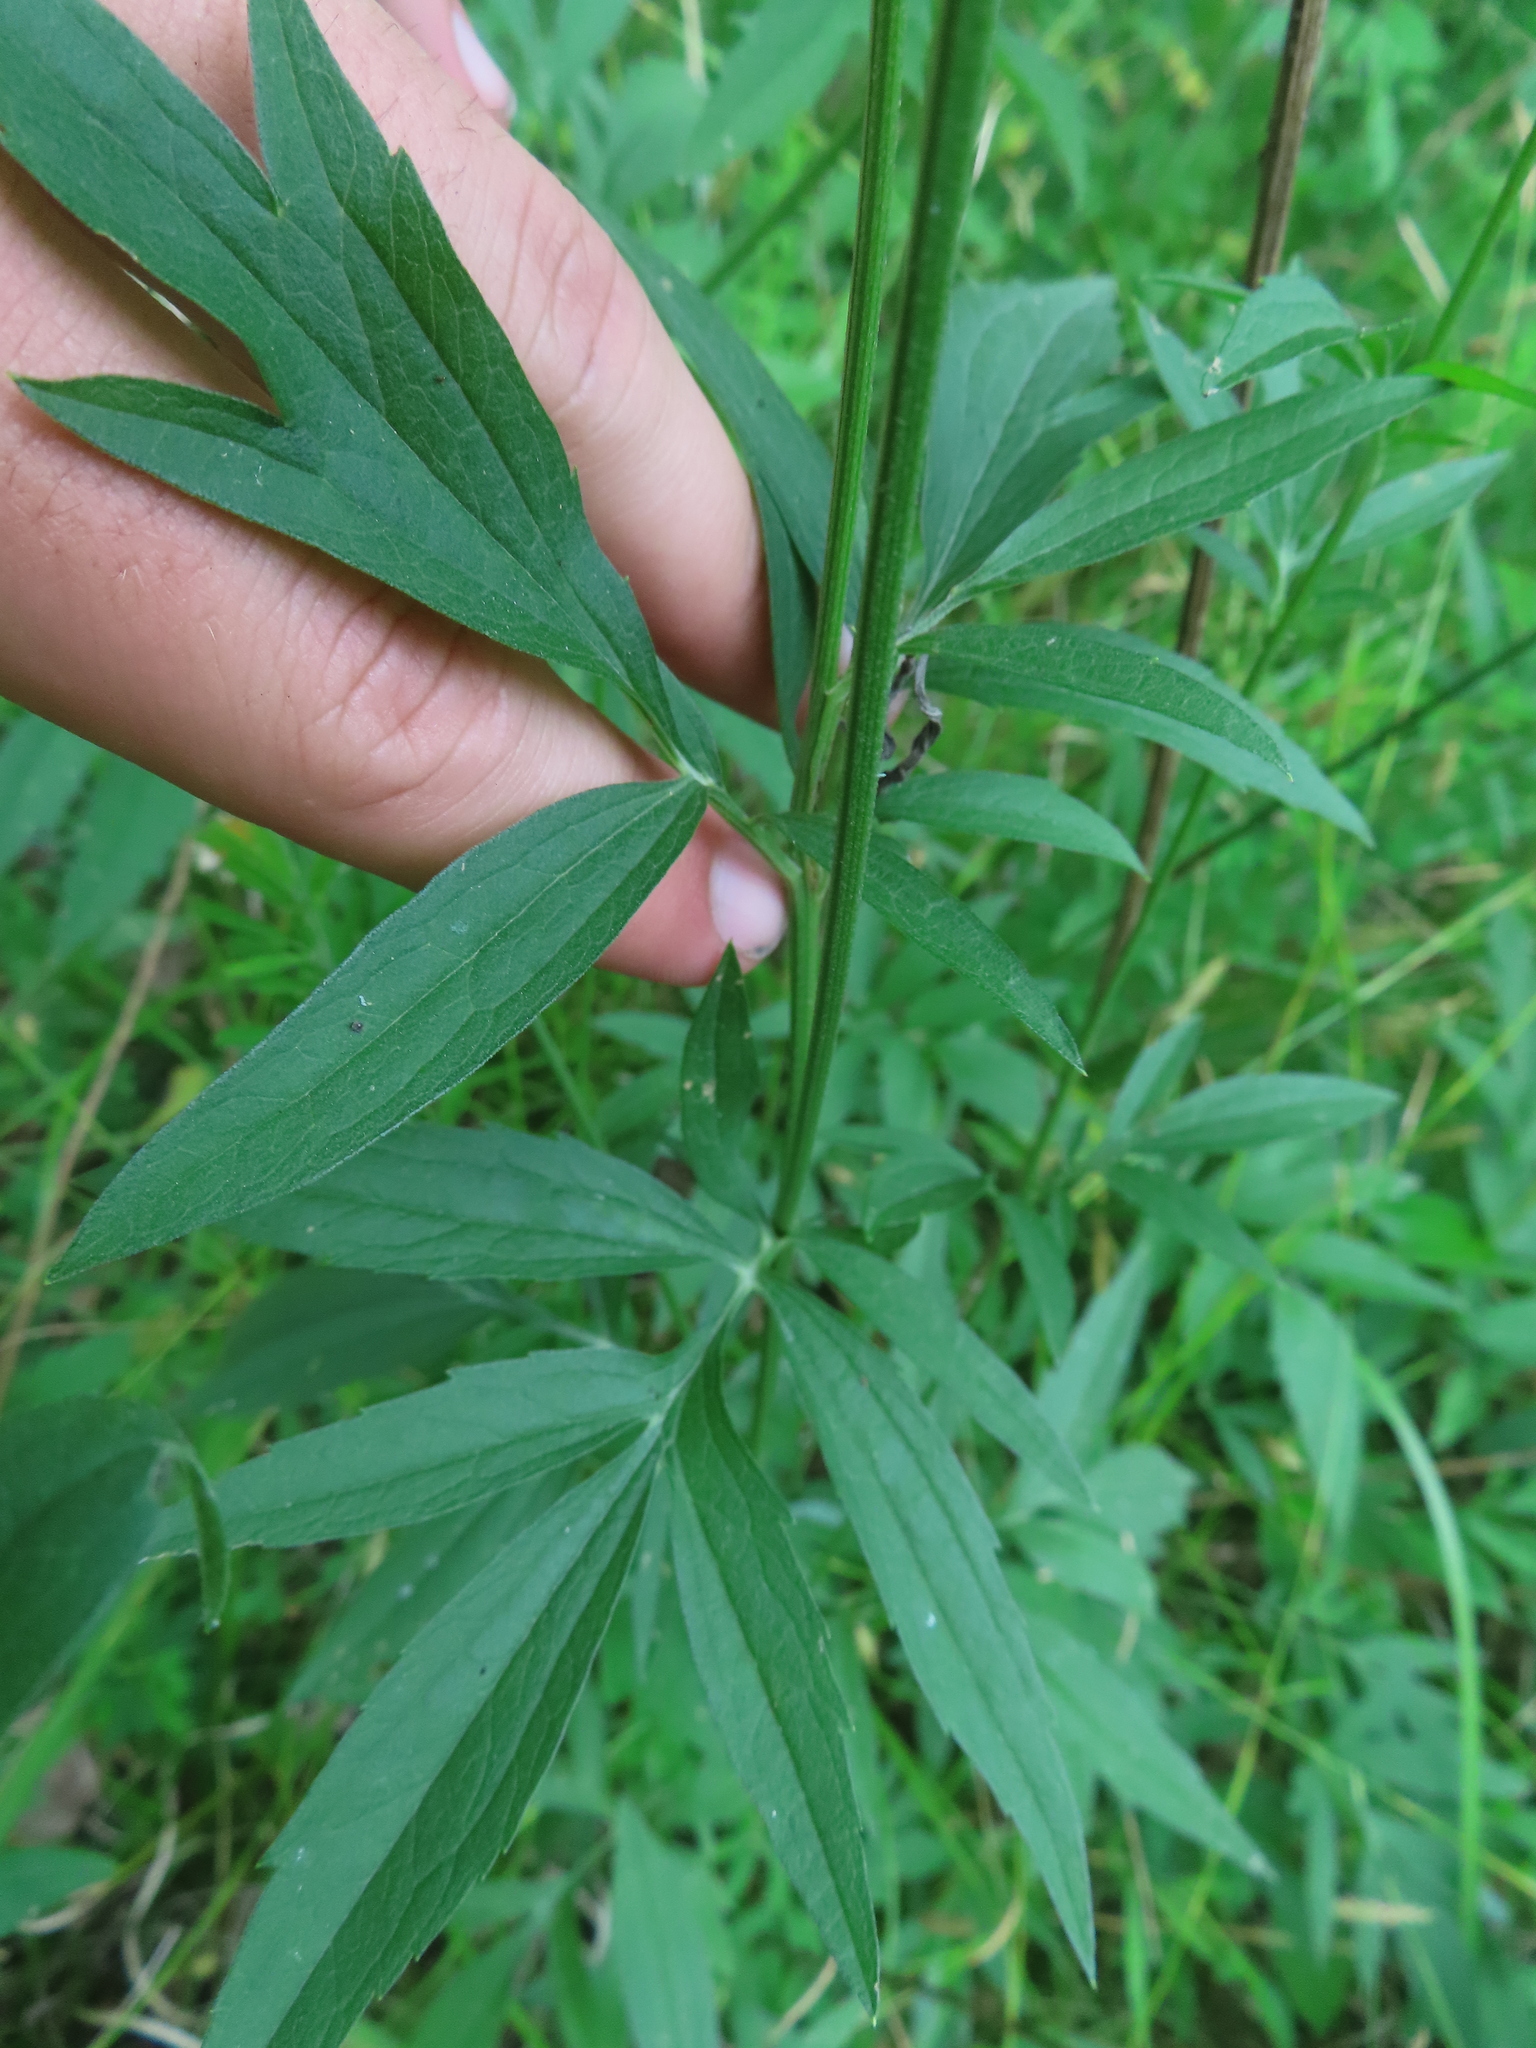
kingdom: Plantae
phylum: Tracheophyta
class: Magnoliopsida
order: Asterales
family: Asteraceae
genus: Ratibida
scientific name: Ratibida pinnata
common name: Drooping prairie-coneflower
